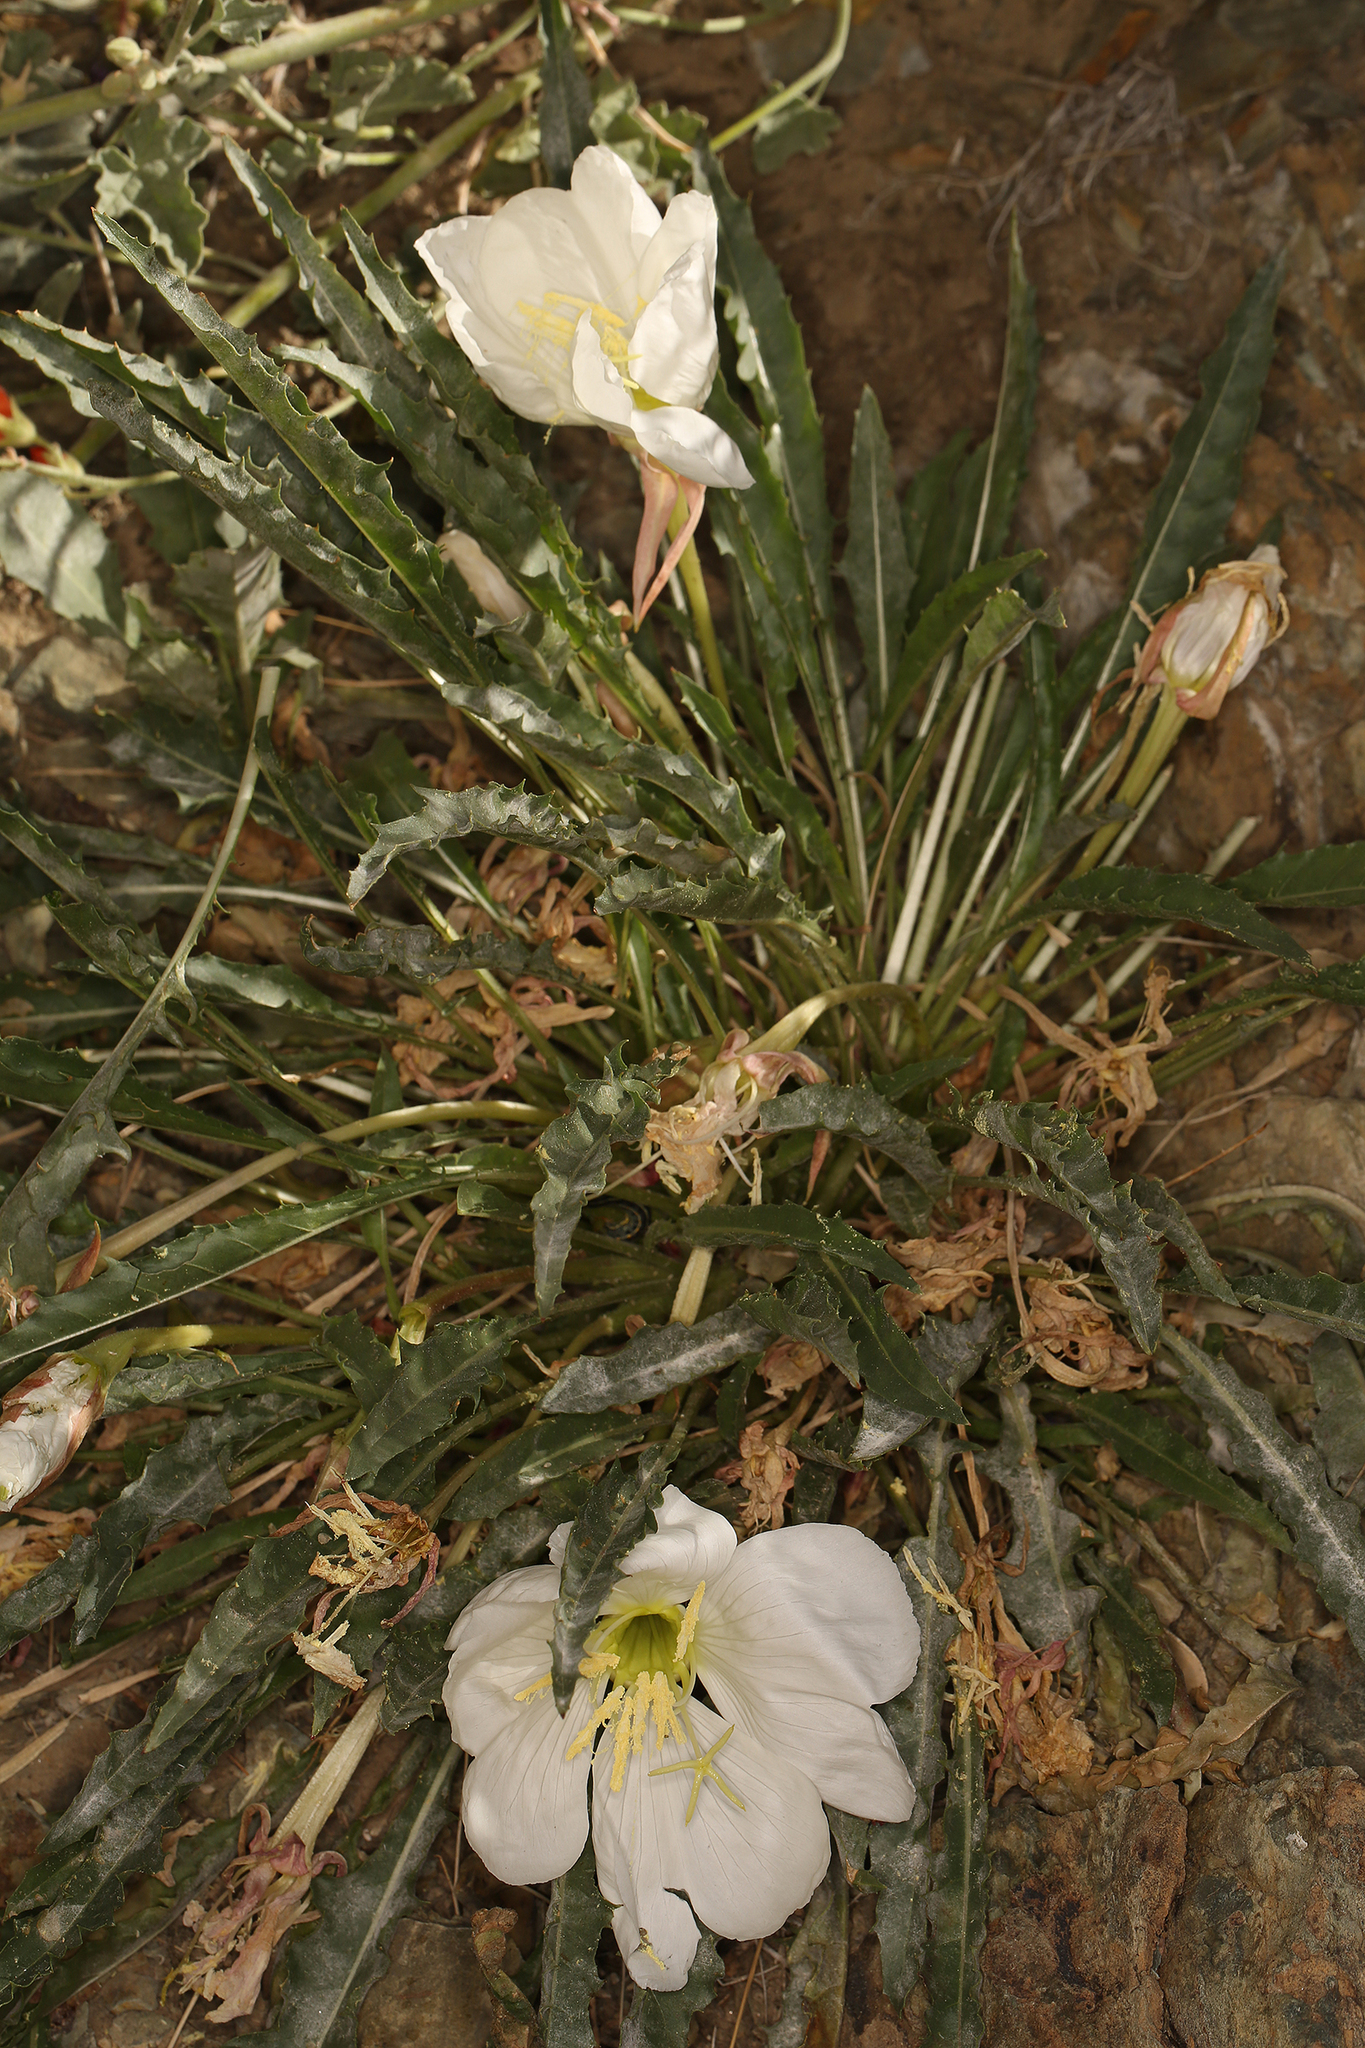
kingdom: Plantae
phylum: Tracheophyta
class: Magnoliopsida
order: Myrtales
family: Onagraceae
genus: Oenothera
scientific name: Oenothera cespitosa
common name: Tufted evening-primrose
